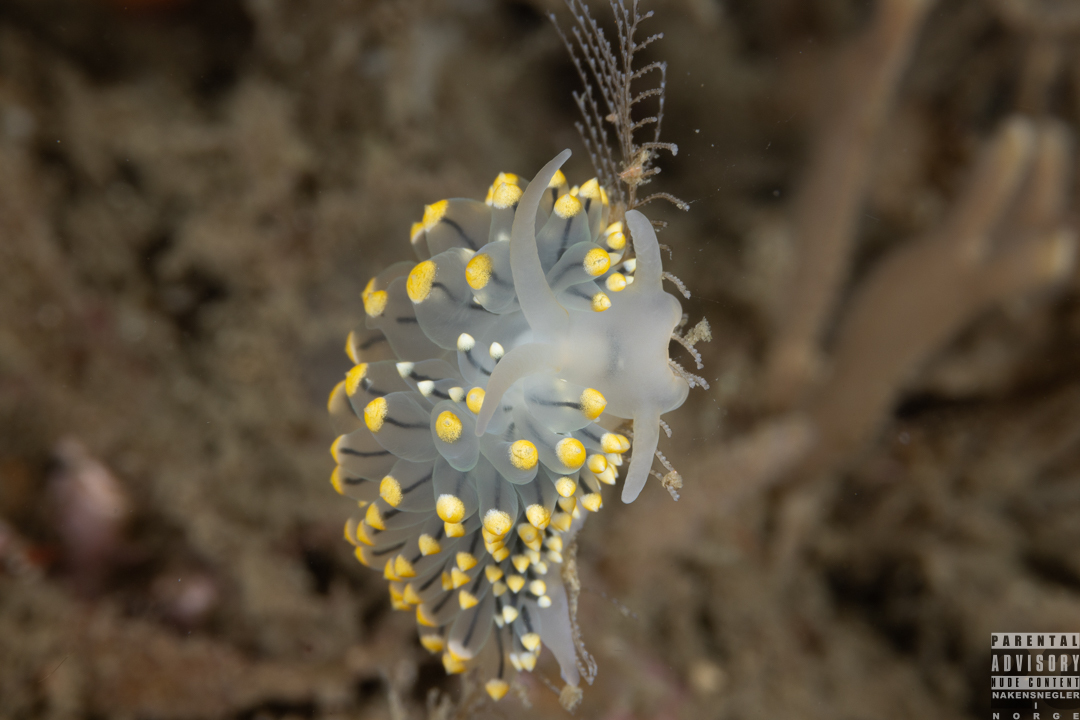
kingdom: Animalia
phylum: Mollusca
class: Gastropoda
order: Nudibranchia
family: Eubranchidae
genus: Eubranchus
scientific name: Eubranchus tricolor
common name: Painted balloon aeolis
